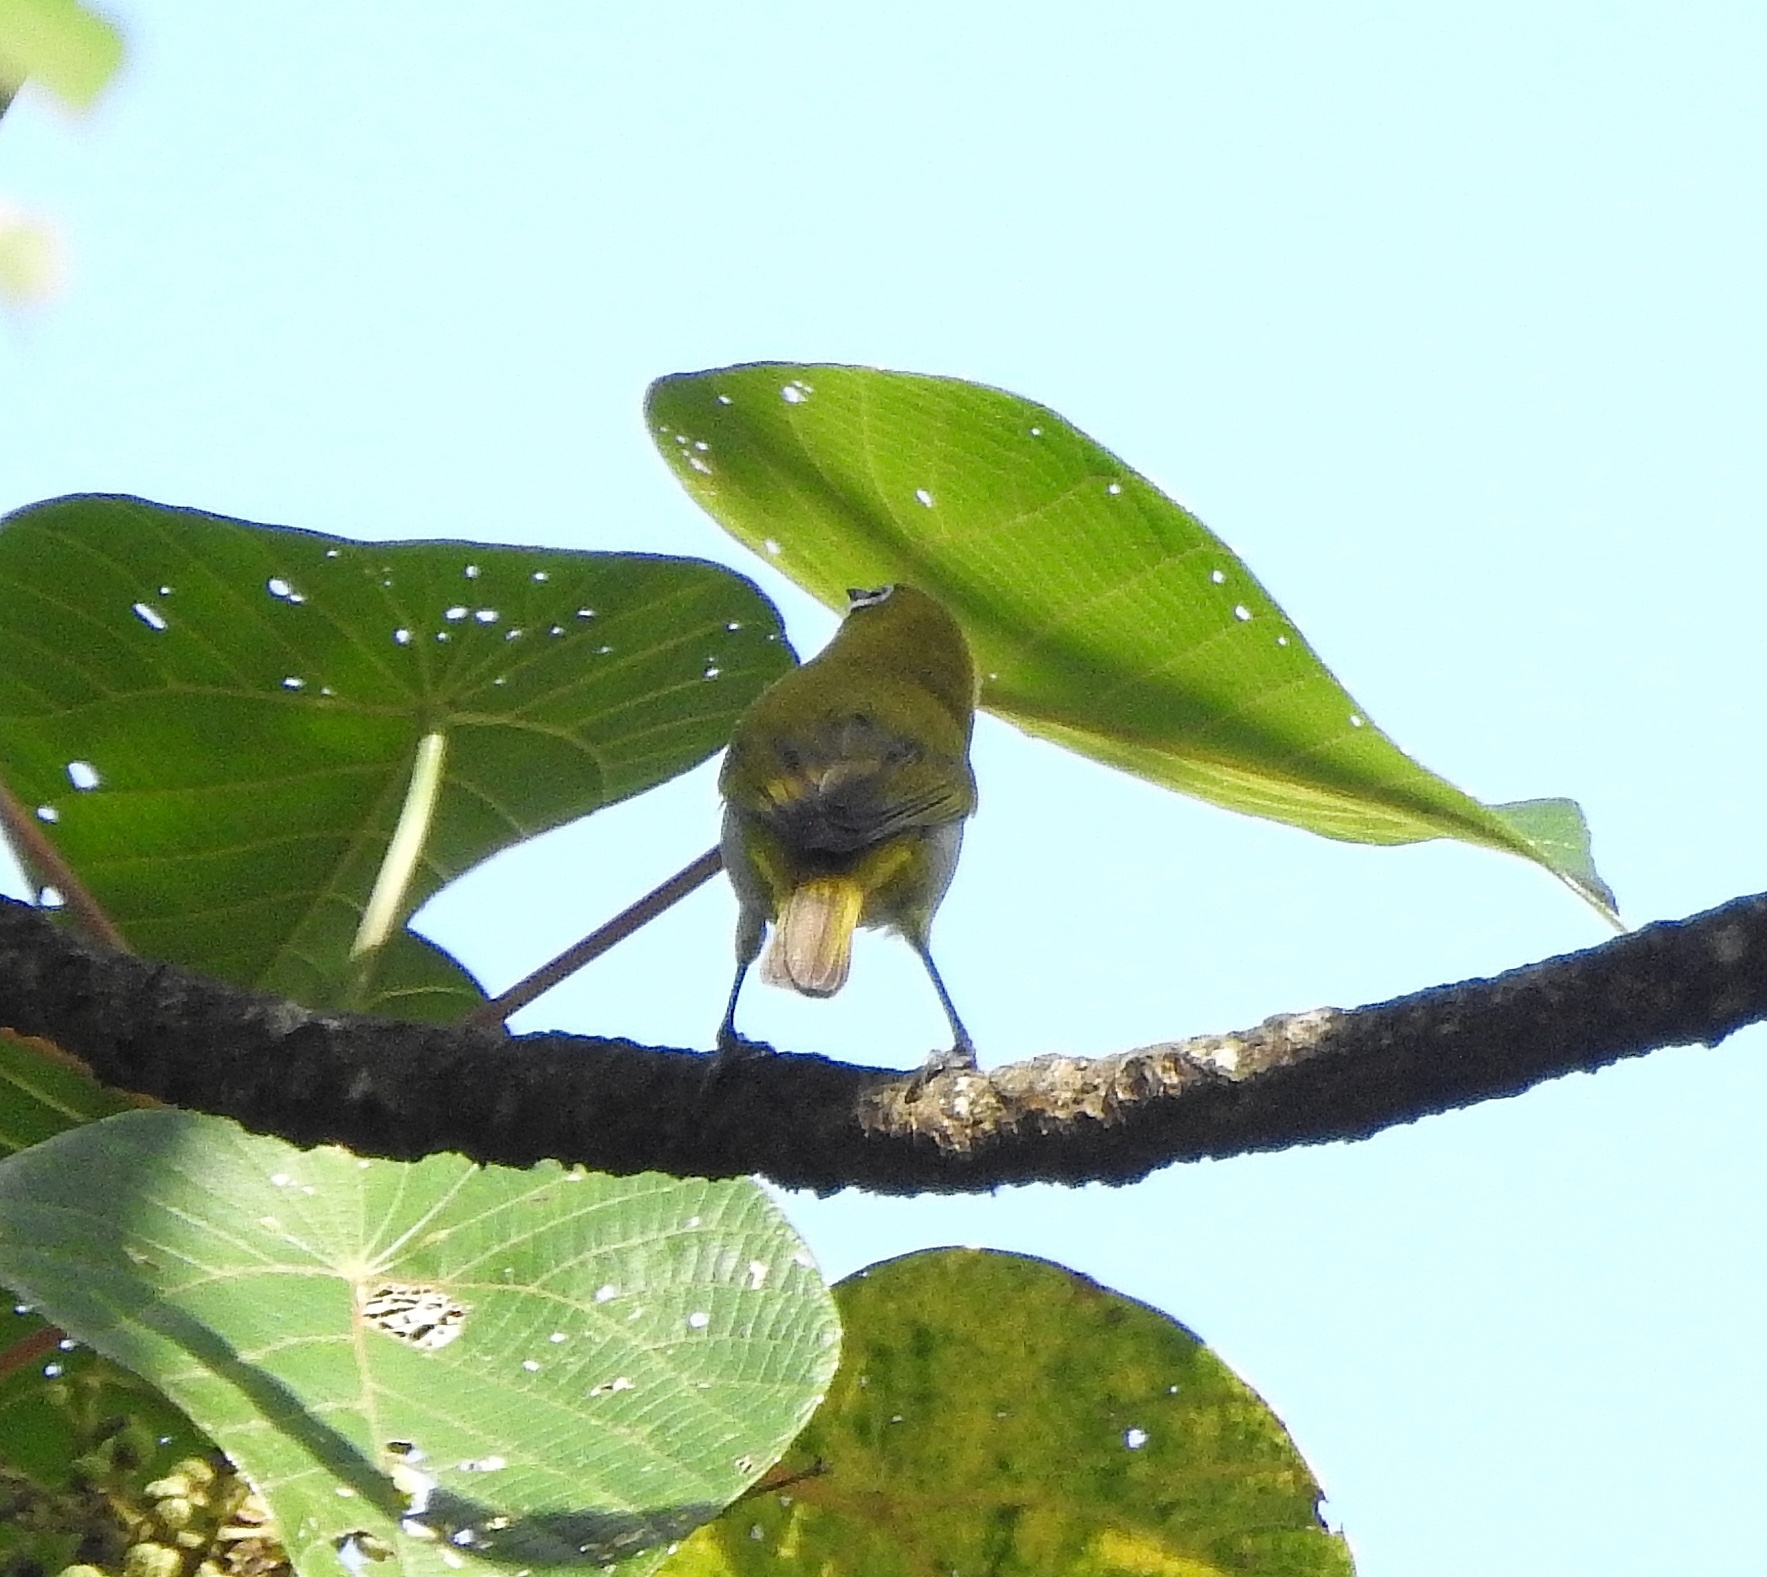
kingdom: Animalia
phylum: Chordata
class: Aves
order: Passeriformes
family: Zosteropidae
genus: Zosterops
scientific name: Zosterops palpebrosus
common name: Oriental white-eye
